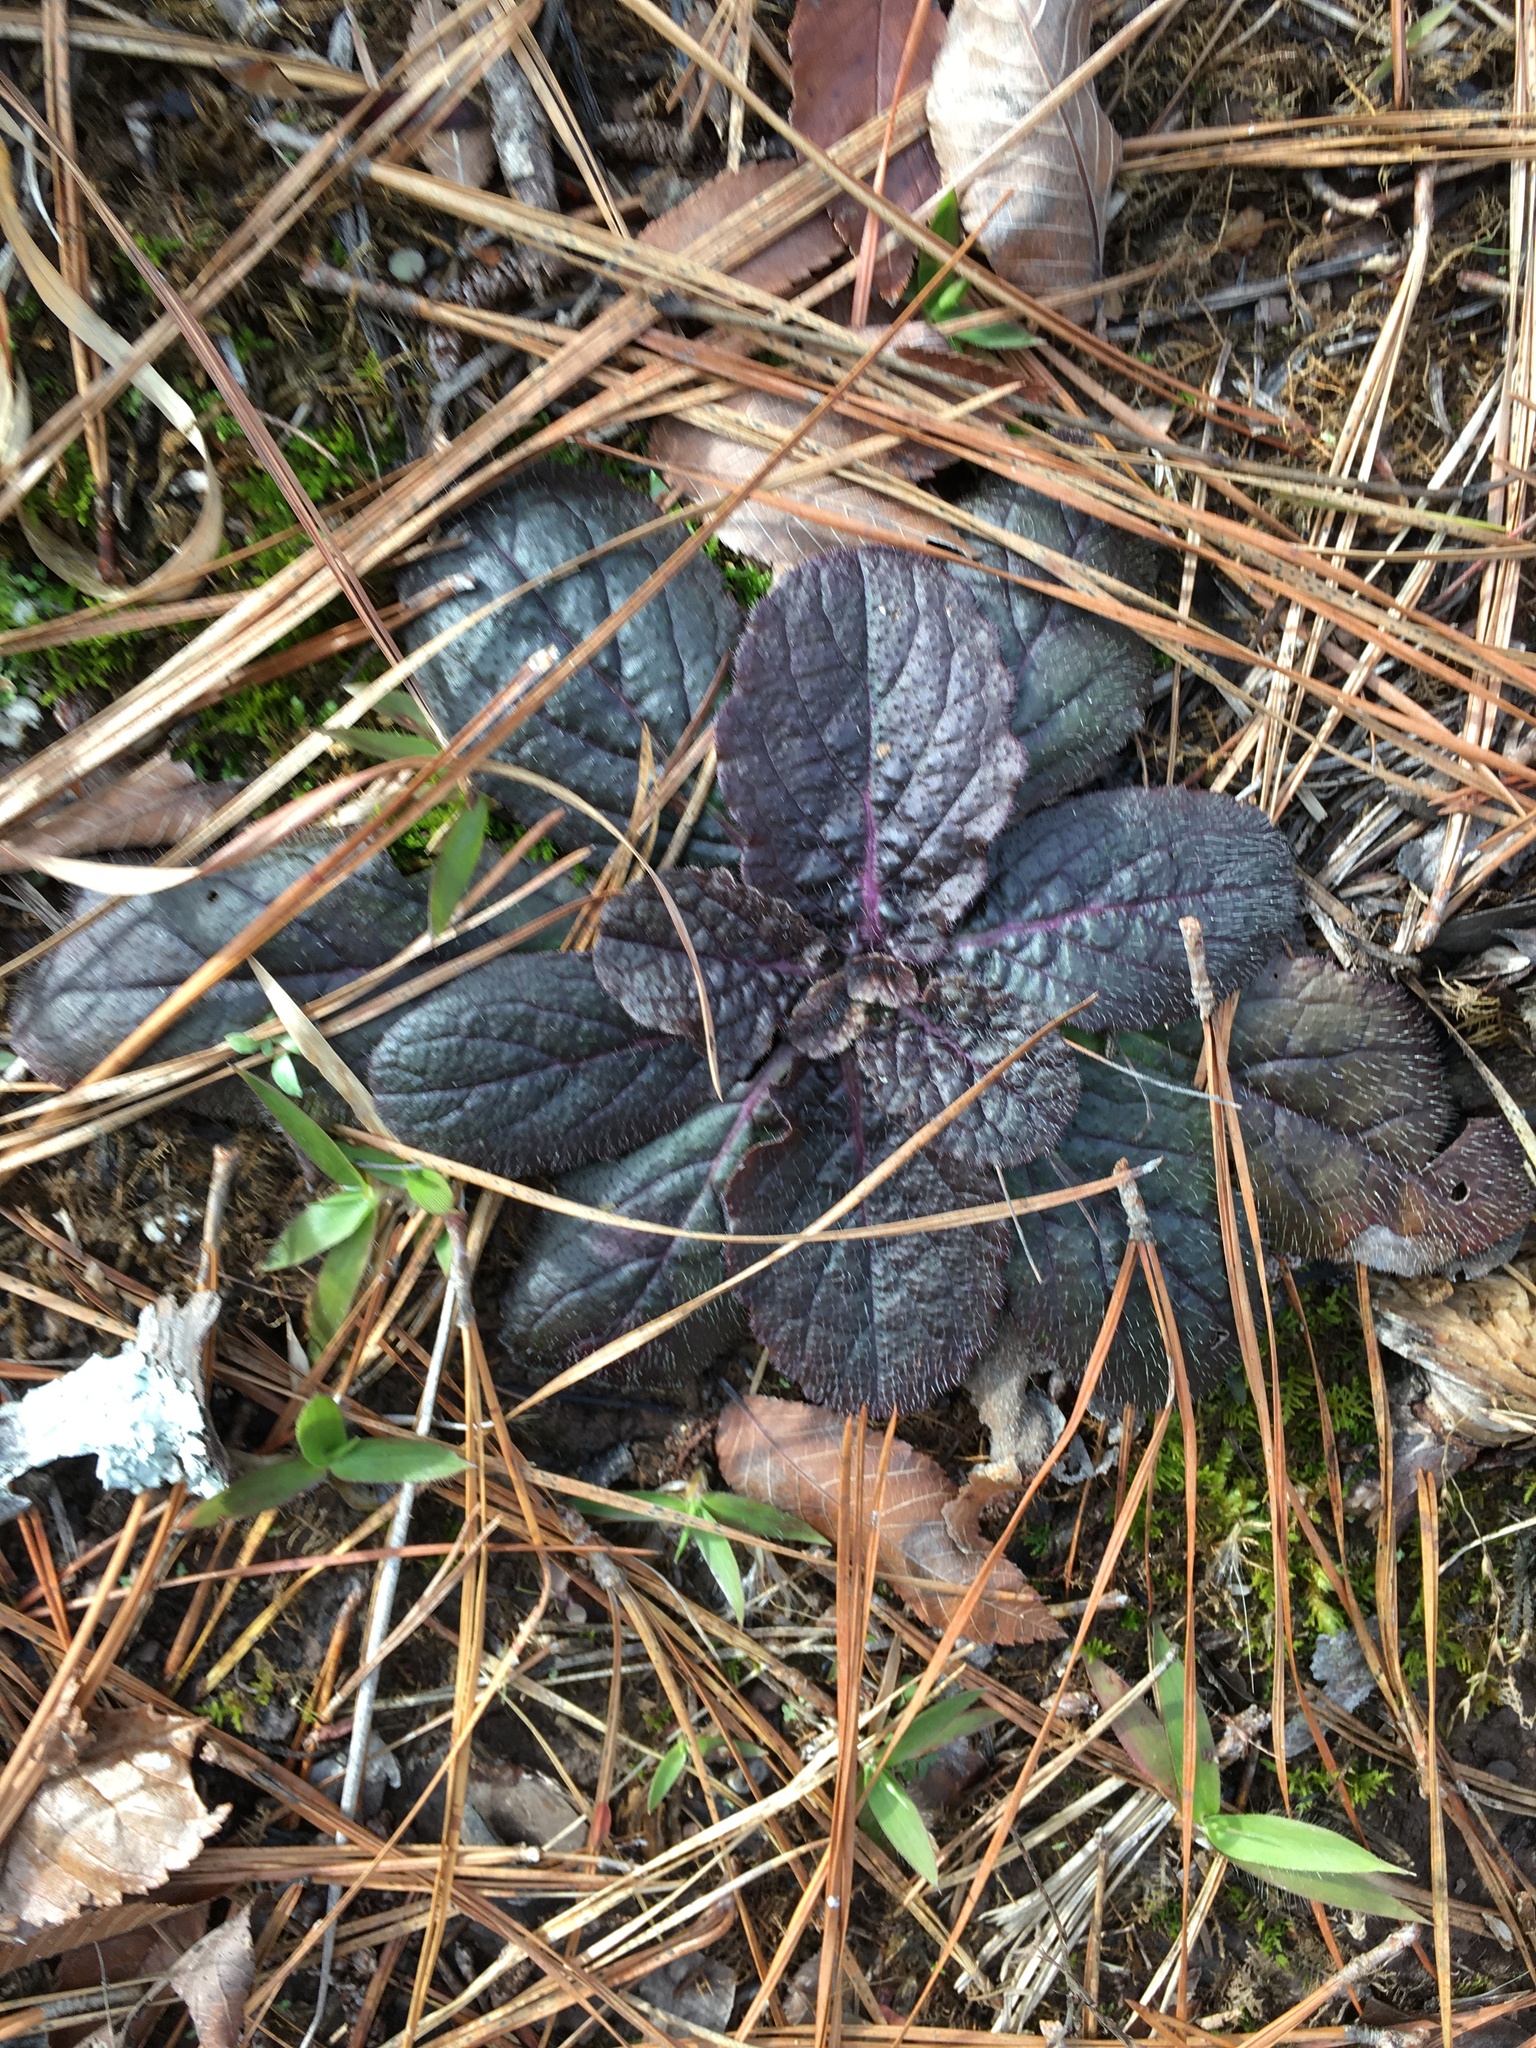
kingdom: Plantae
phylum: Tracheophyta
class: Magnoliopsida
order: Lamiales
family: Lamiaceae
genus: Salvia
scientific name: Salvia lyrata
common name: Cancerweed
